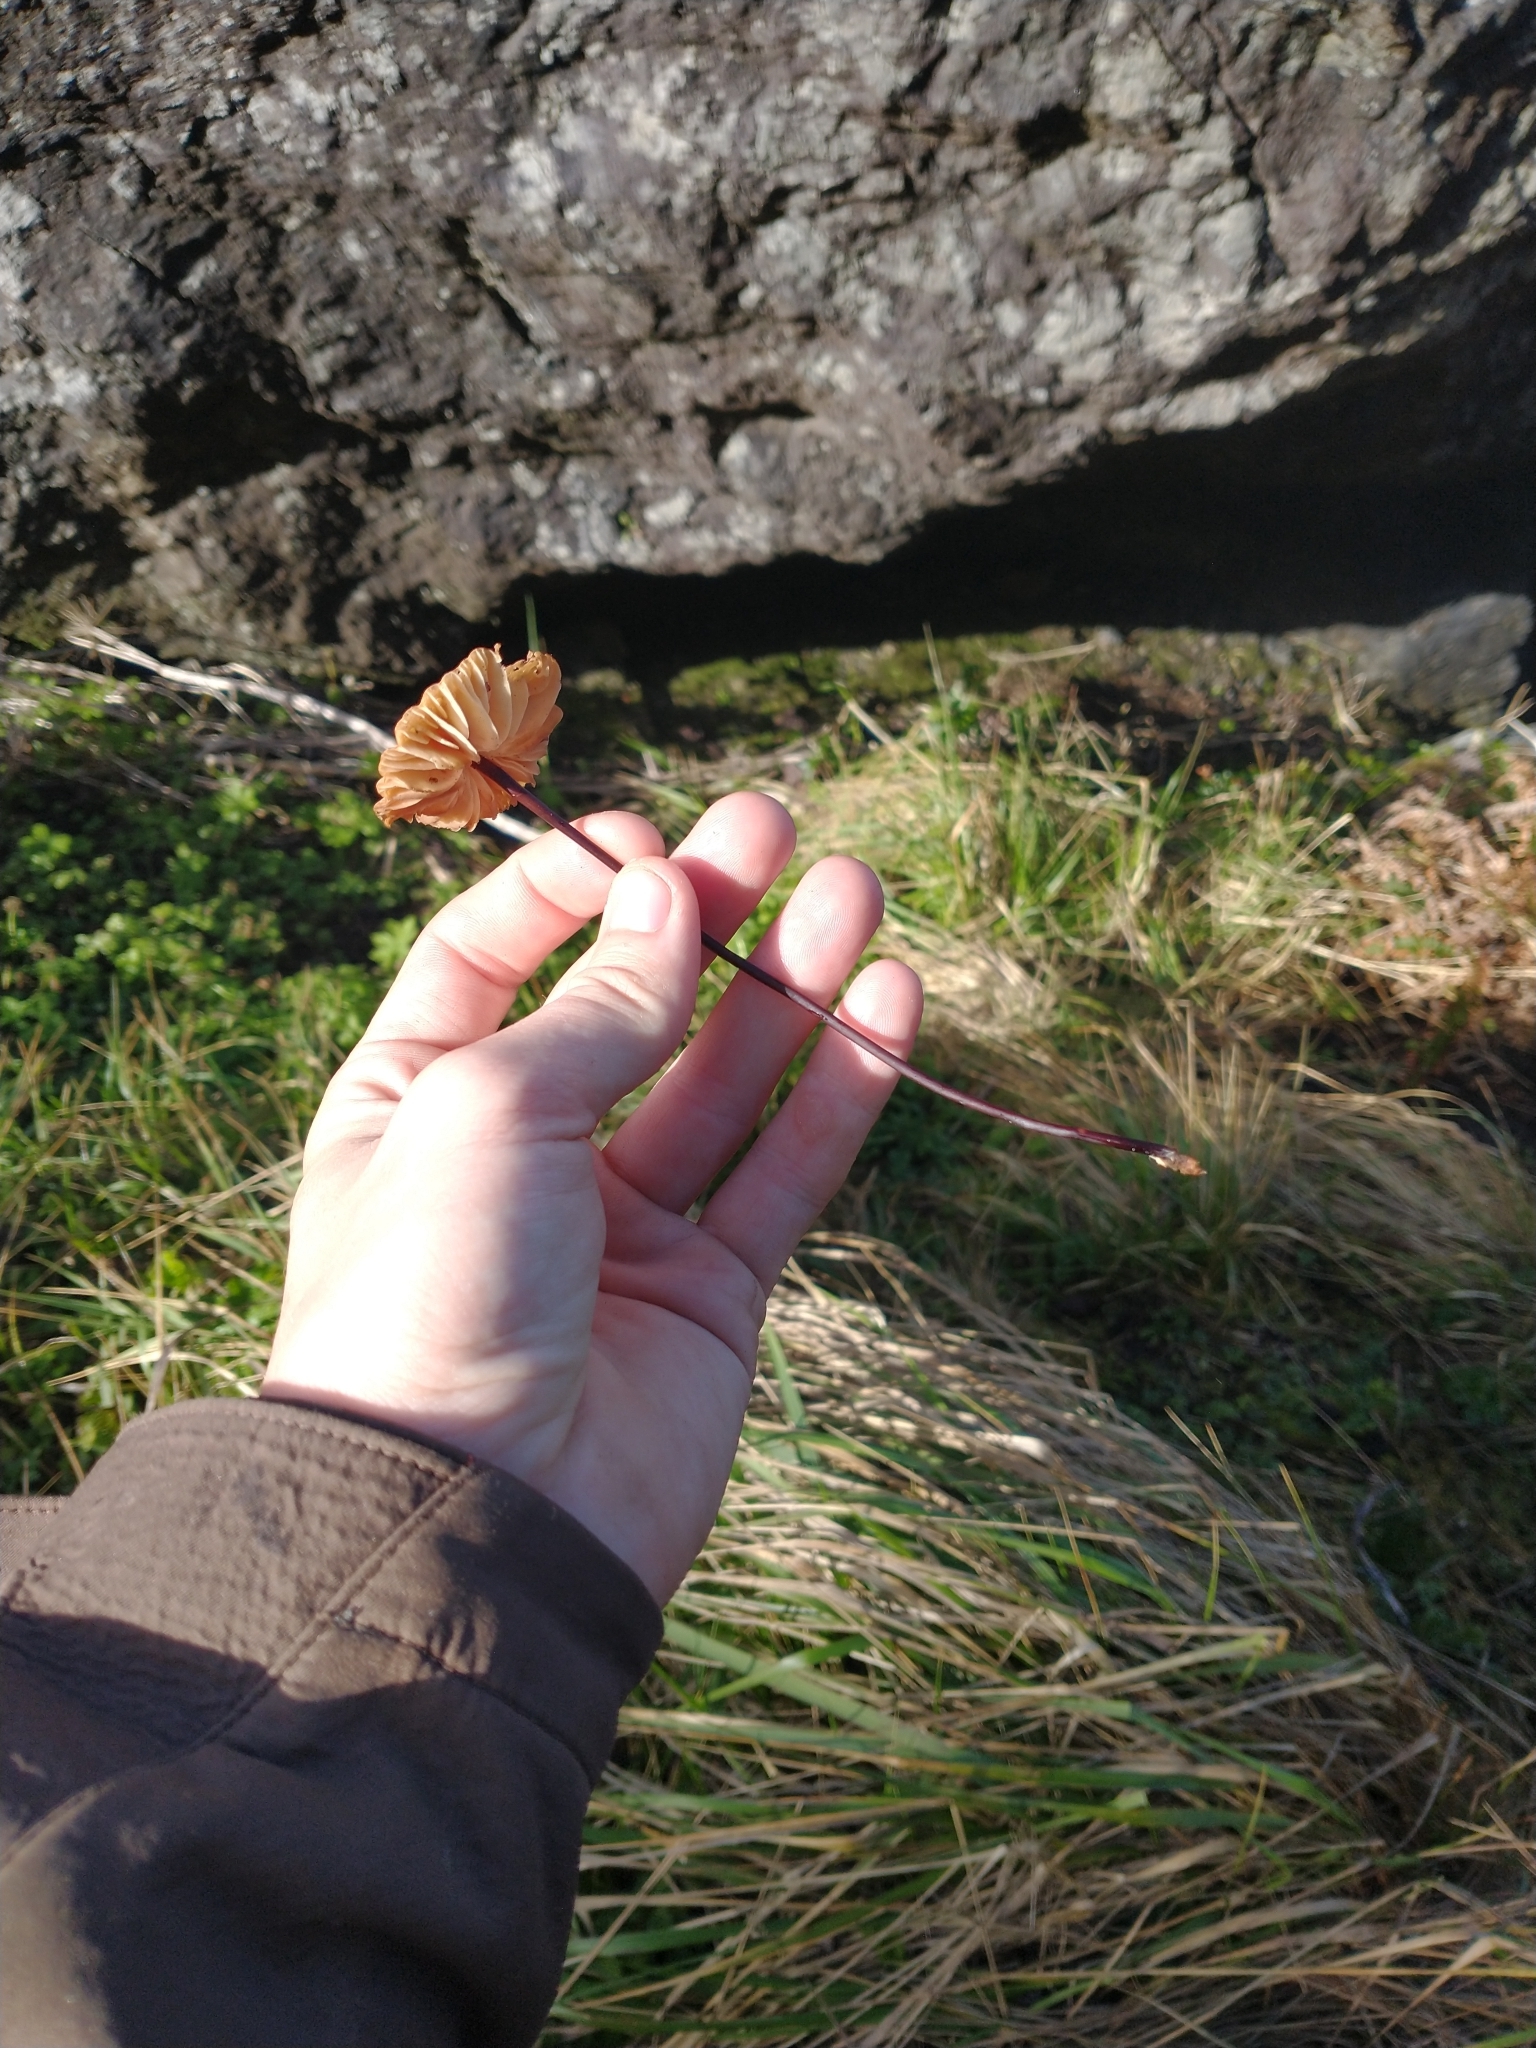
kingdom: Fungi
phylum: Basidiomycota
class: Agaricomycetes
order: Agaricales
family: Marasmiaceae
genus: Marasmius
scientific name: Marasmius plicatulus
